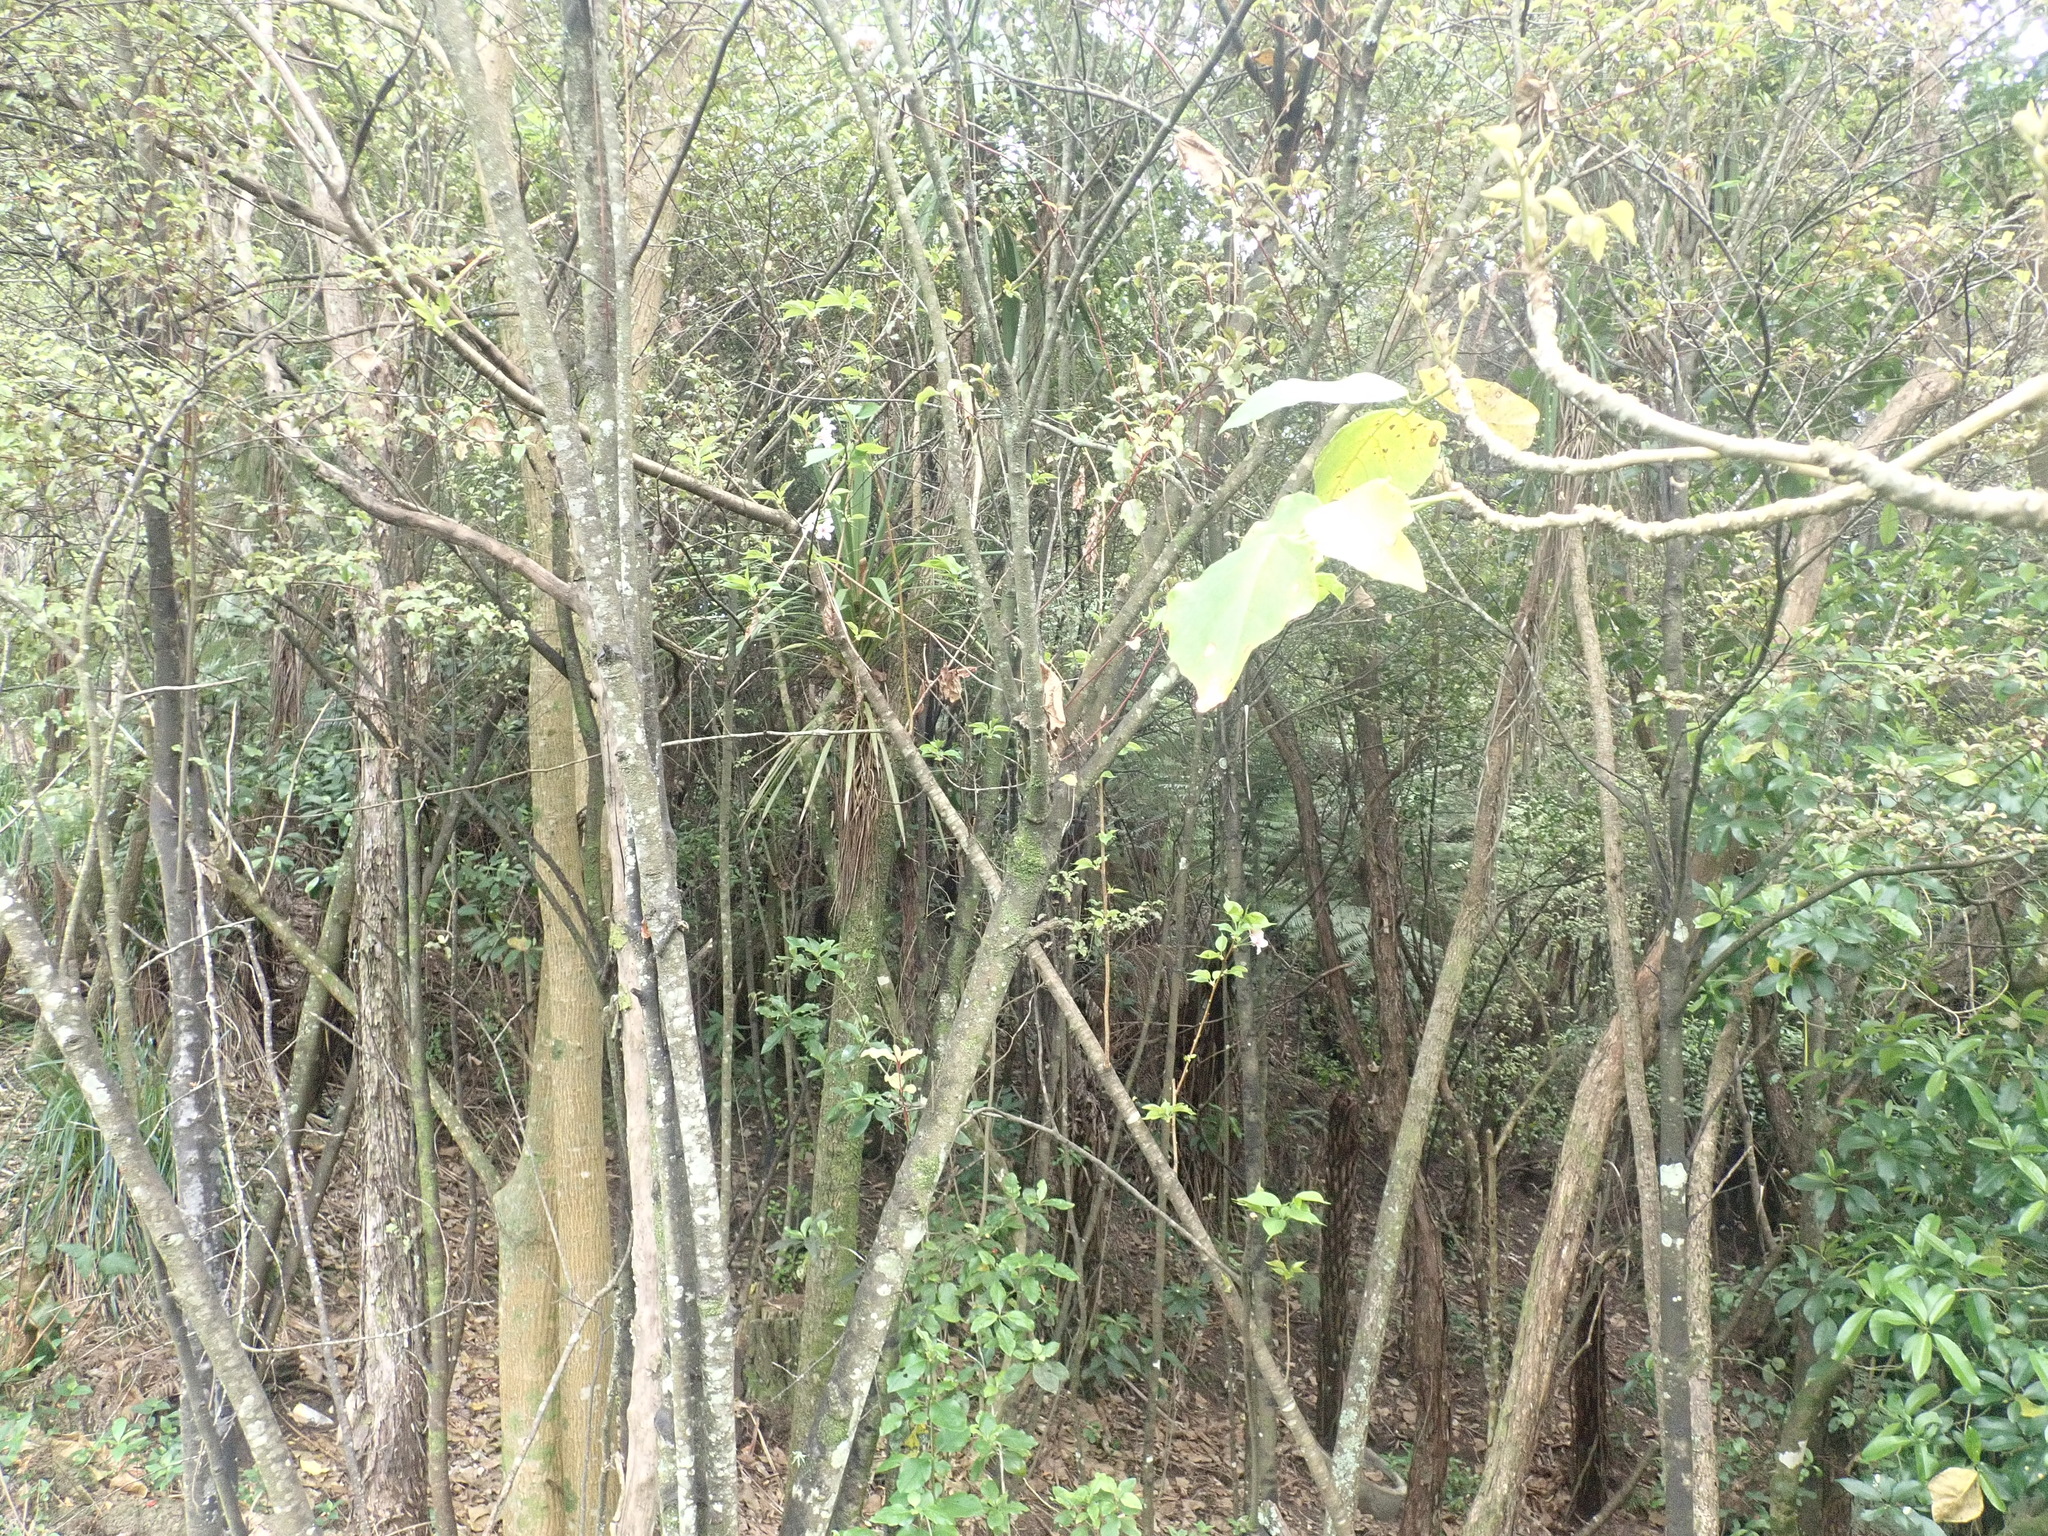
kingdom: Plantae
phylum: Tracheophyta
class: Magnoliopsida
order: Ericales
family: Primulaceae
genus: Myrsine
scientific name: Myrsine australis
